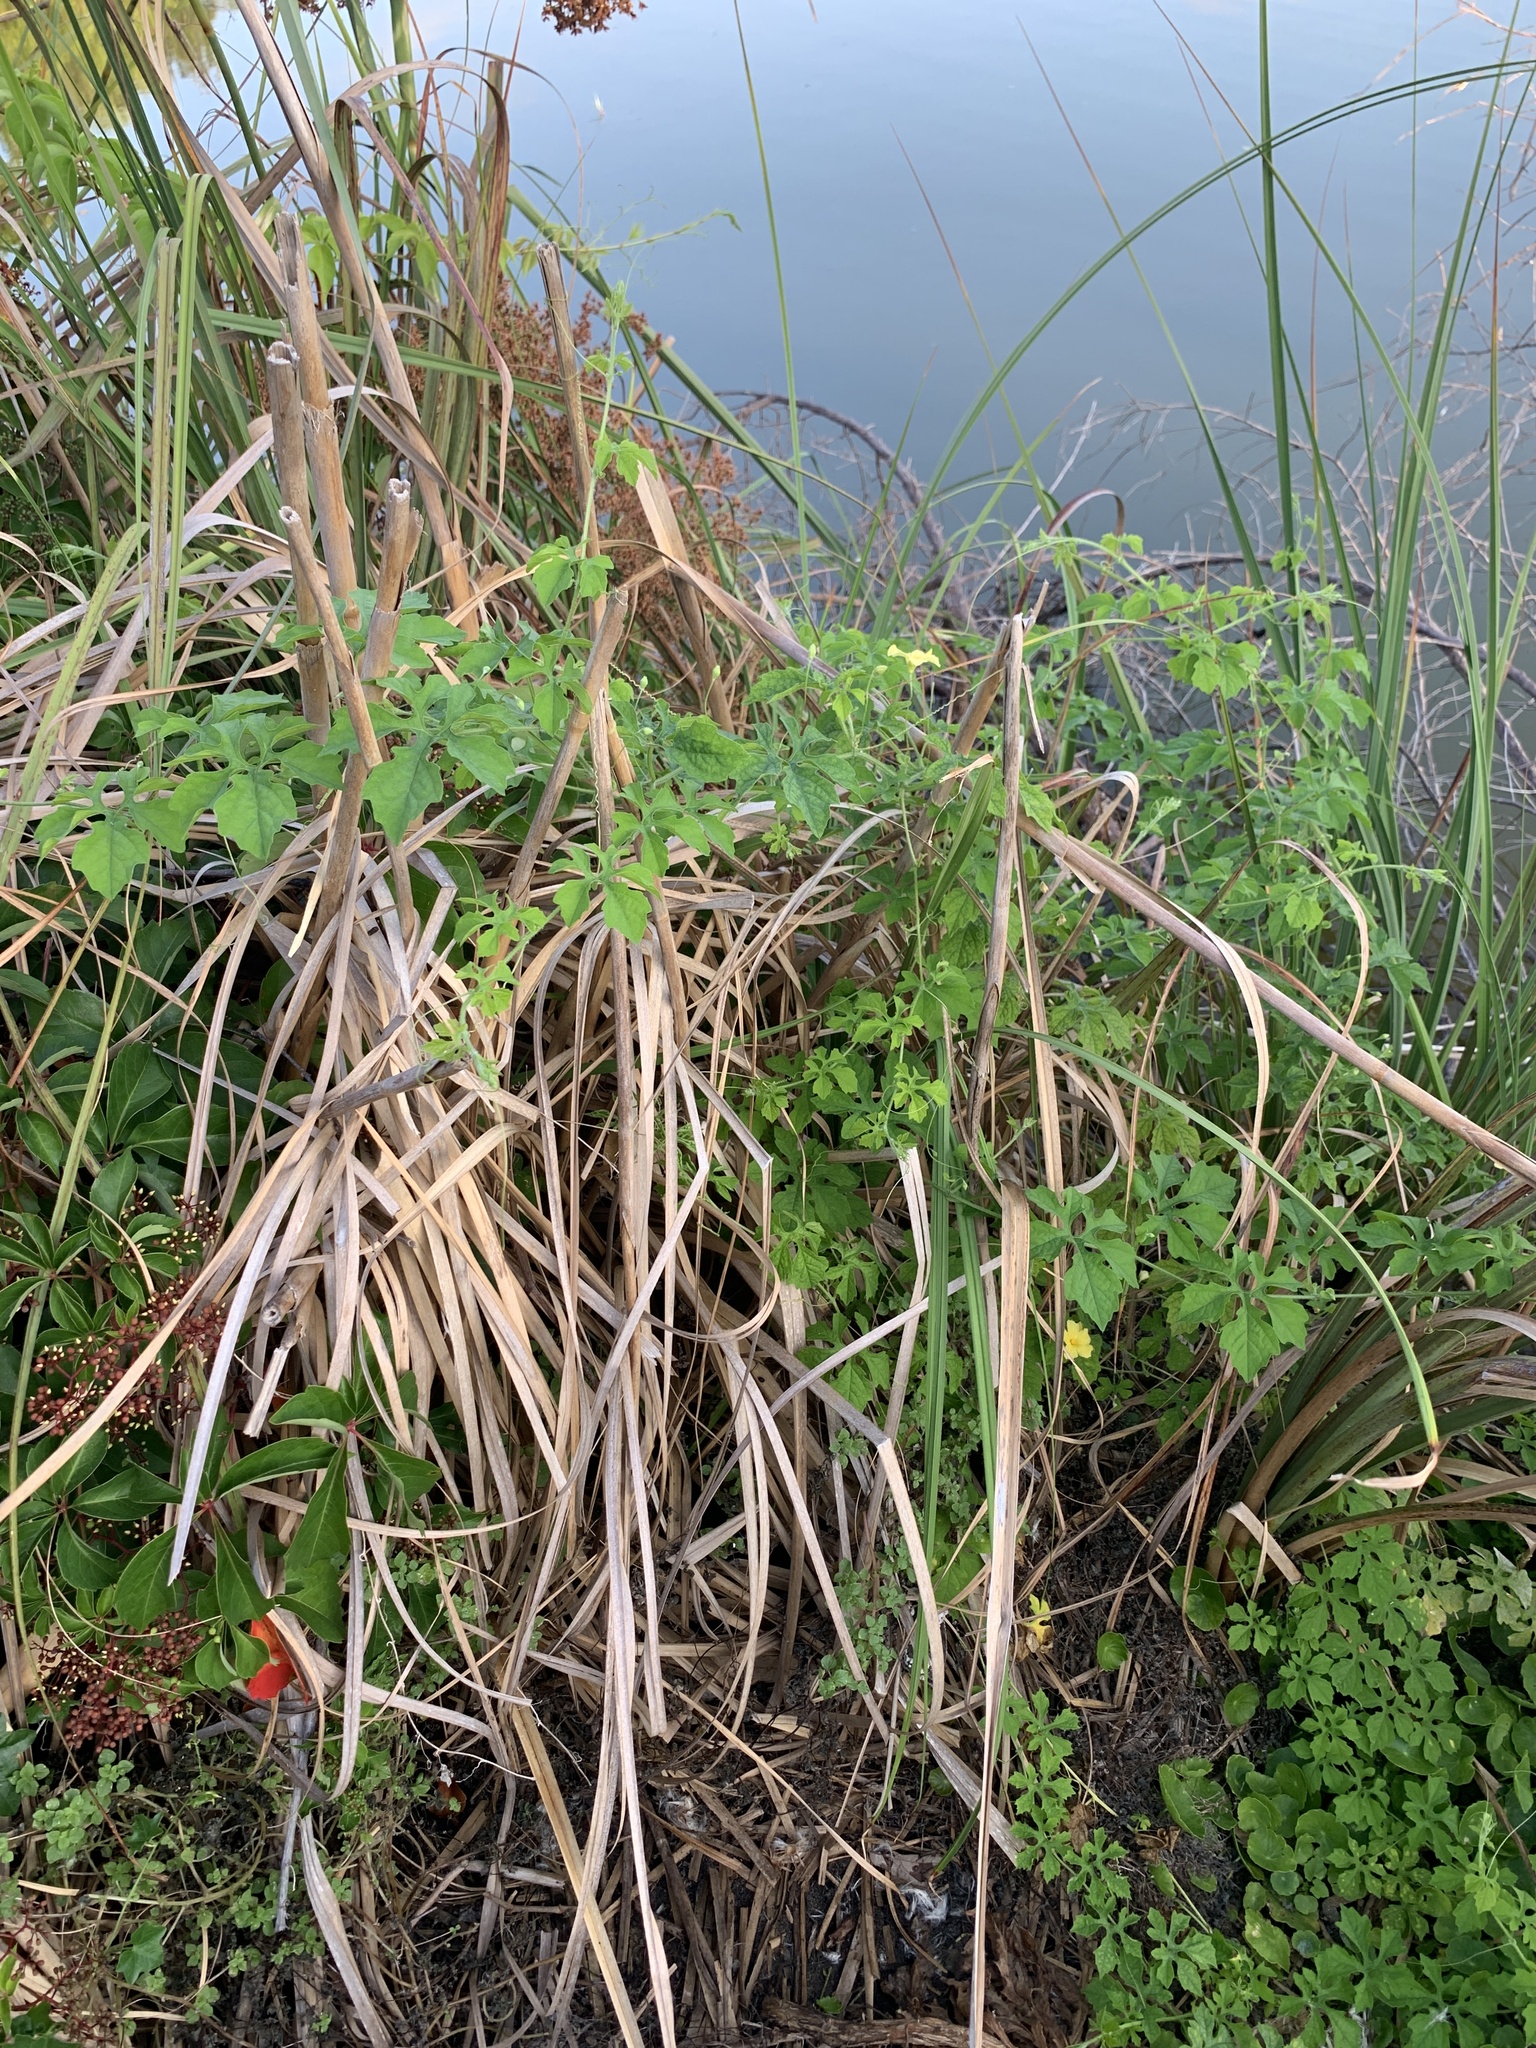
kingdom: Plantae
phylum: Tracheophyta
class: Magnoliopsida
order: Cucurbitales
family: Cucurbitaceae
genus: Momordica
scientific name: Momordica charantia
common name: Balsampear
